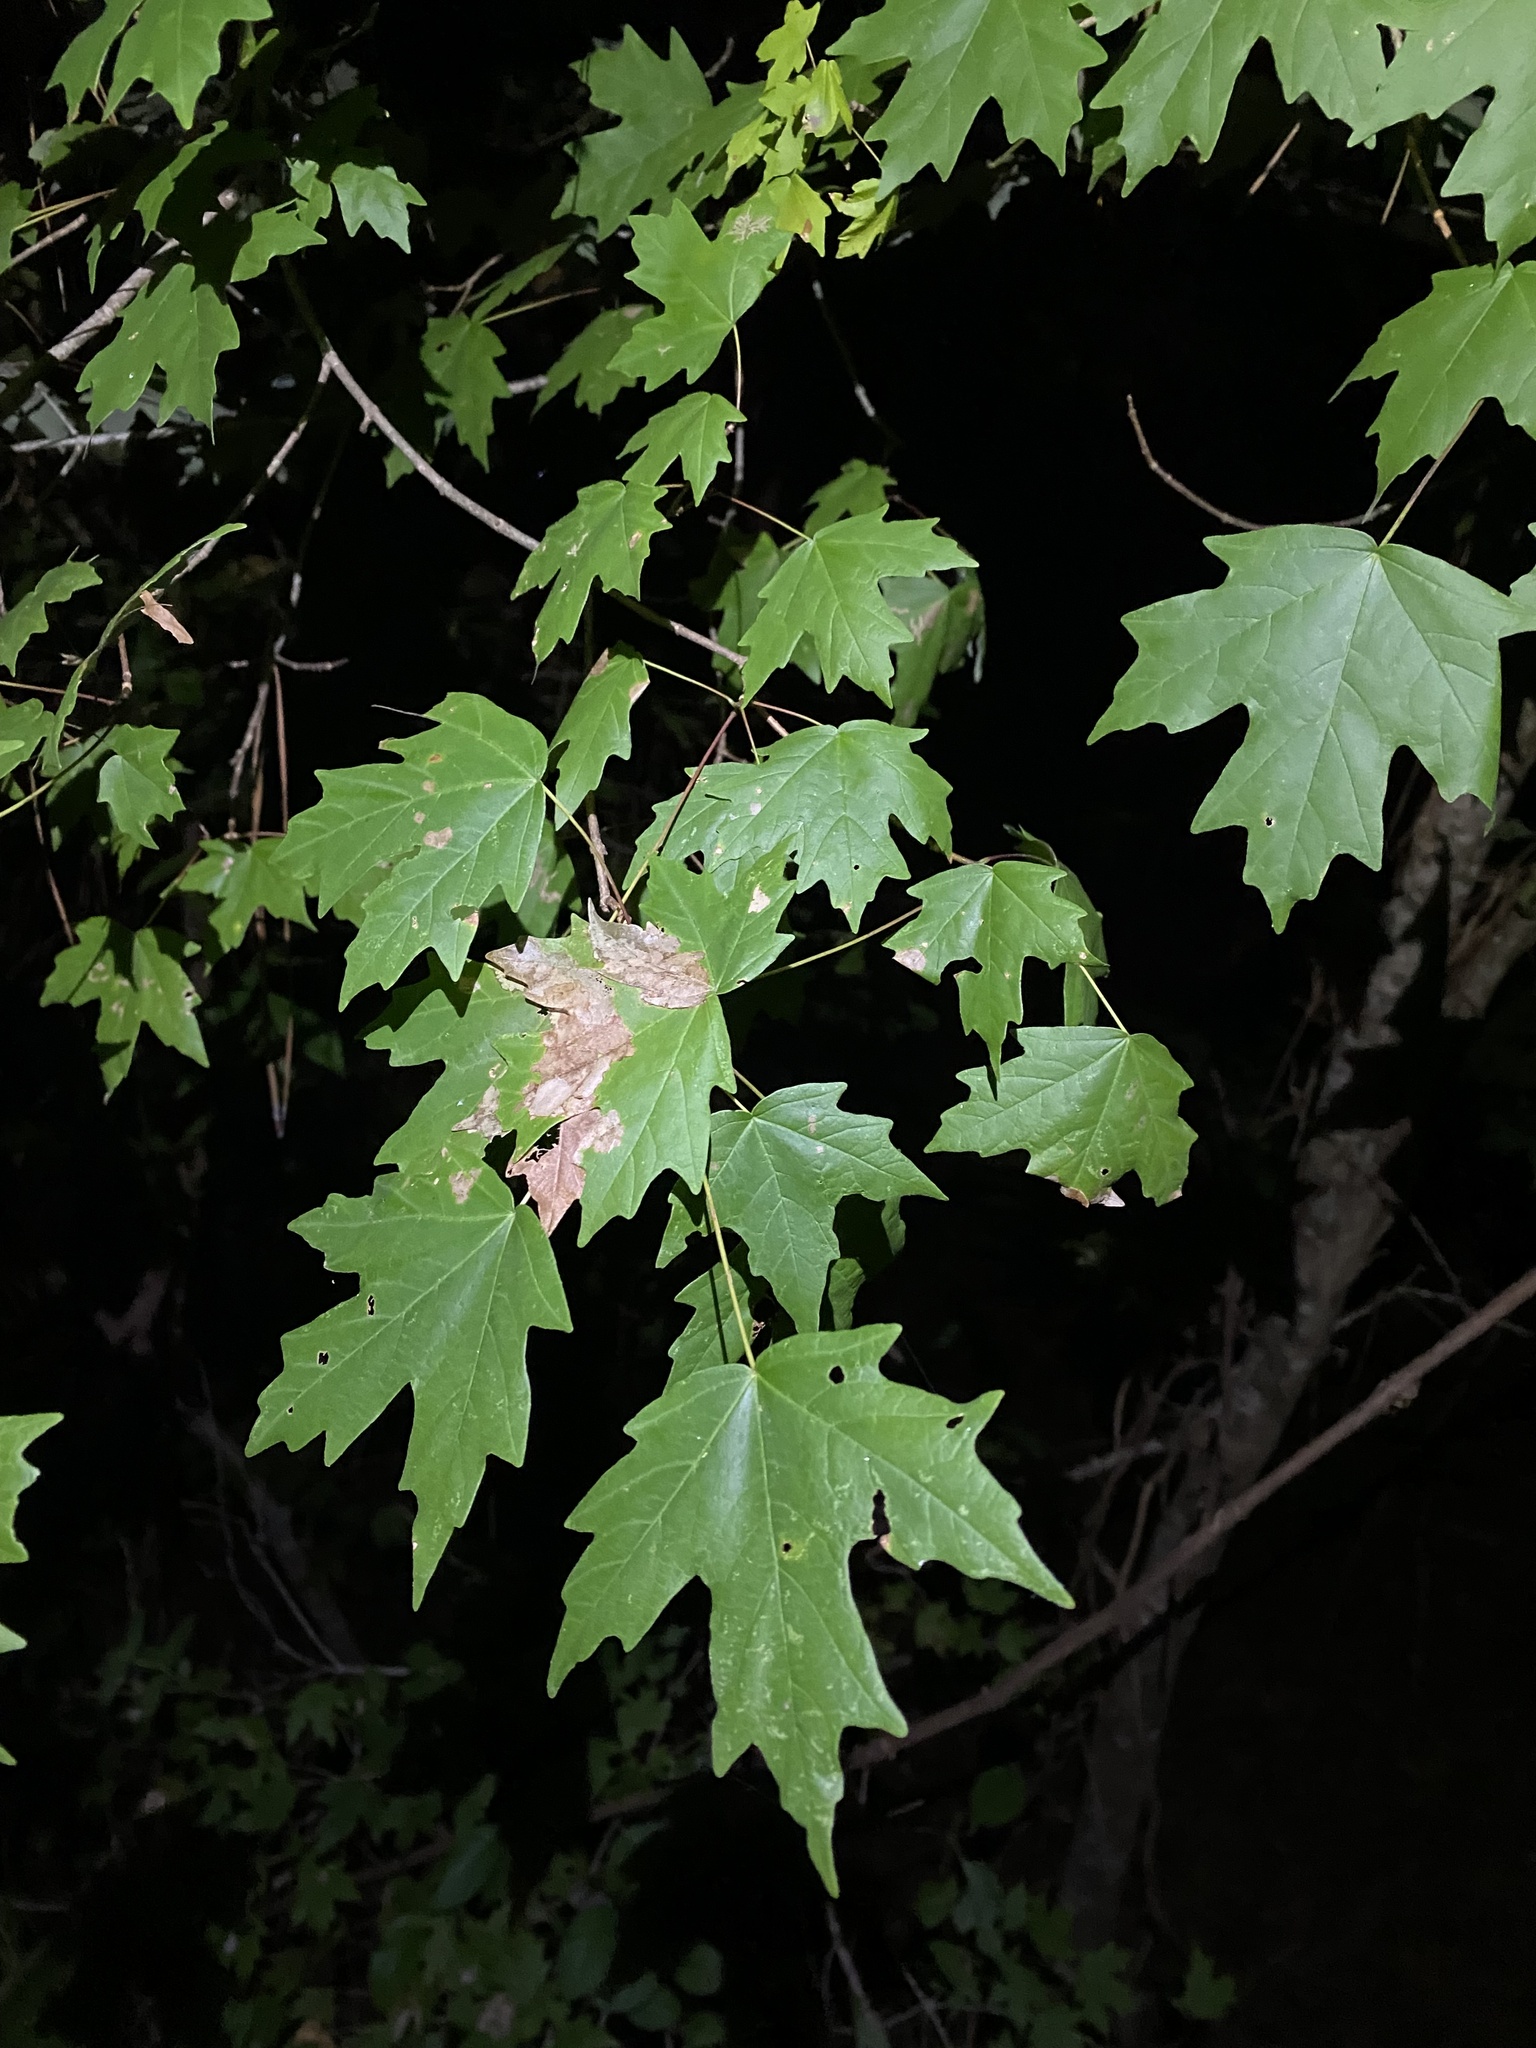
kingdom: Plantae
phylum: Tracheophyta
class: Magnoliopsida
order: Sapindales
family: Sapindaceae
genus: Acer
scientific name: Acer floridanum
